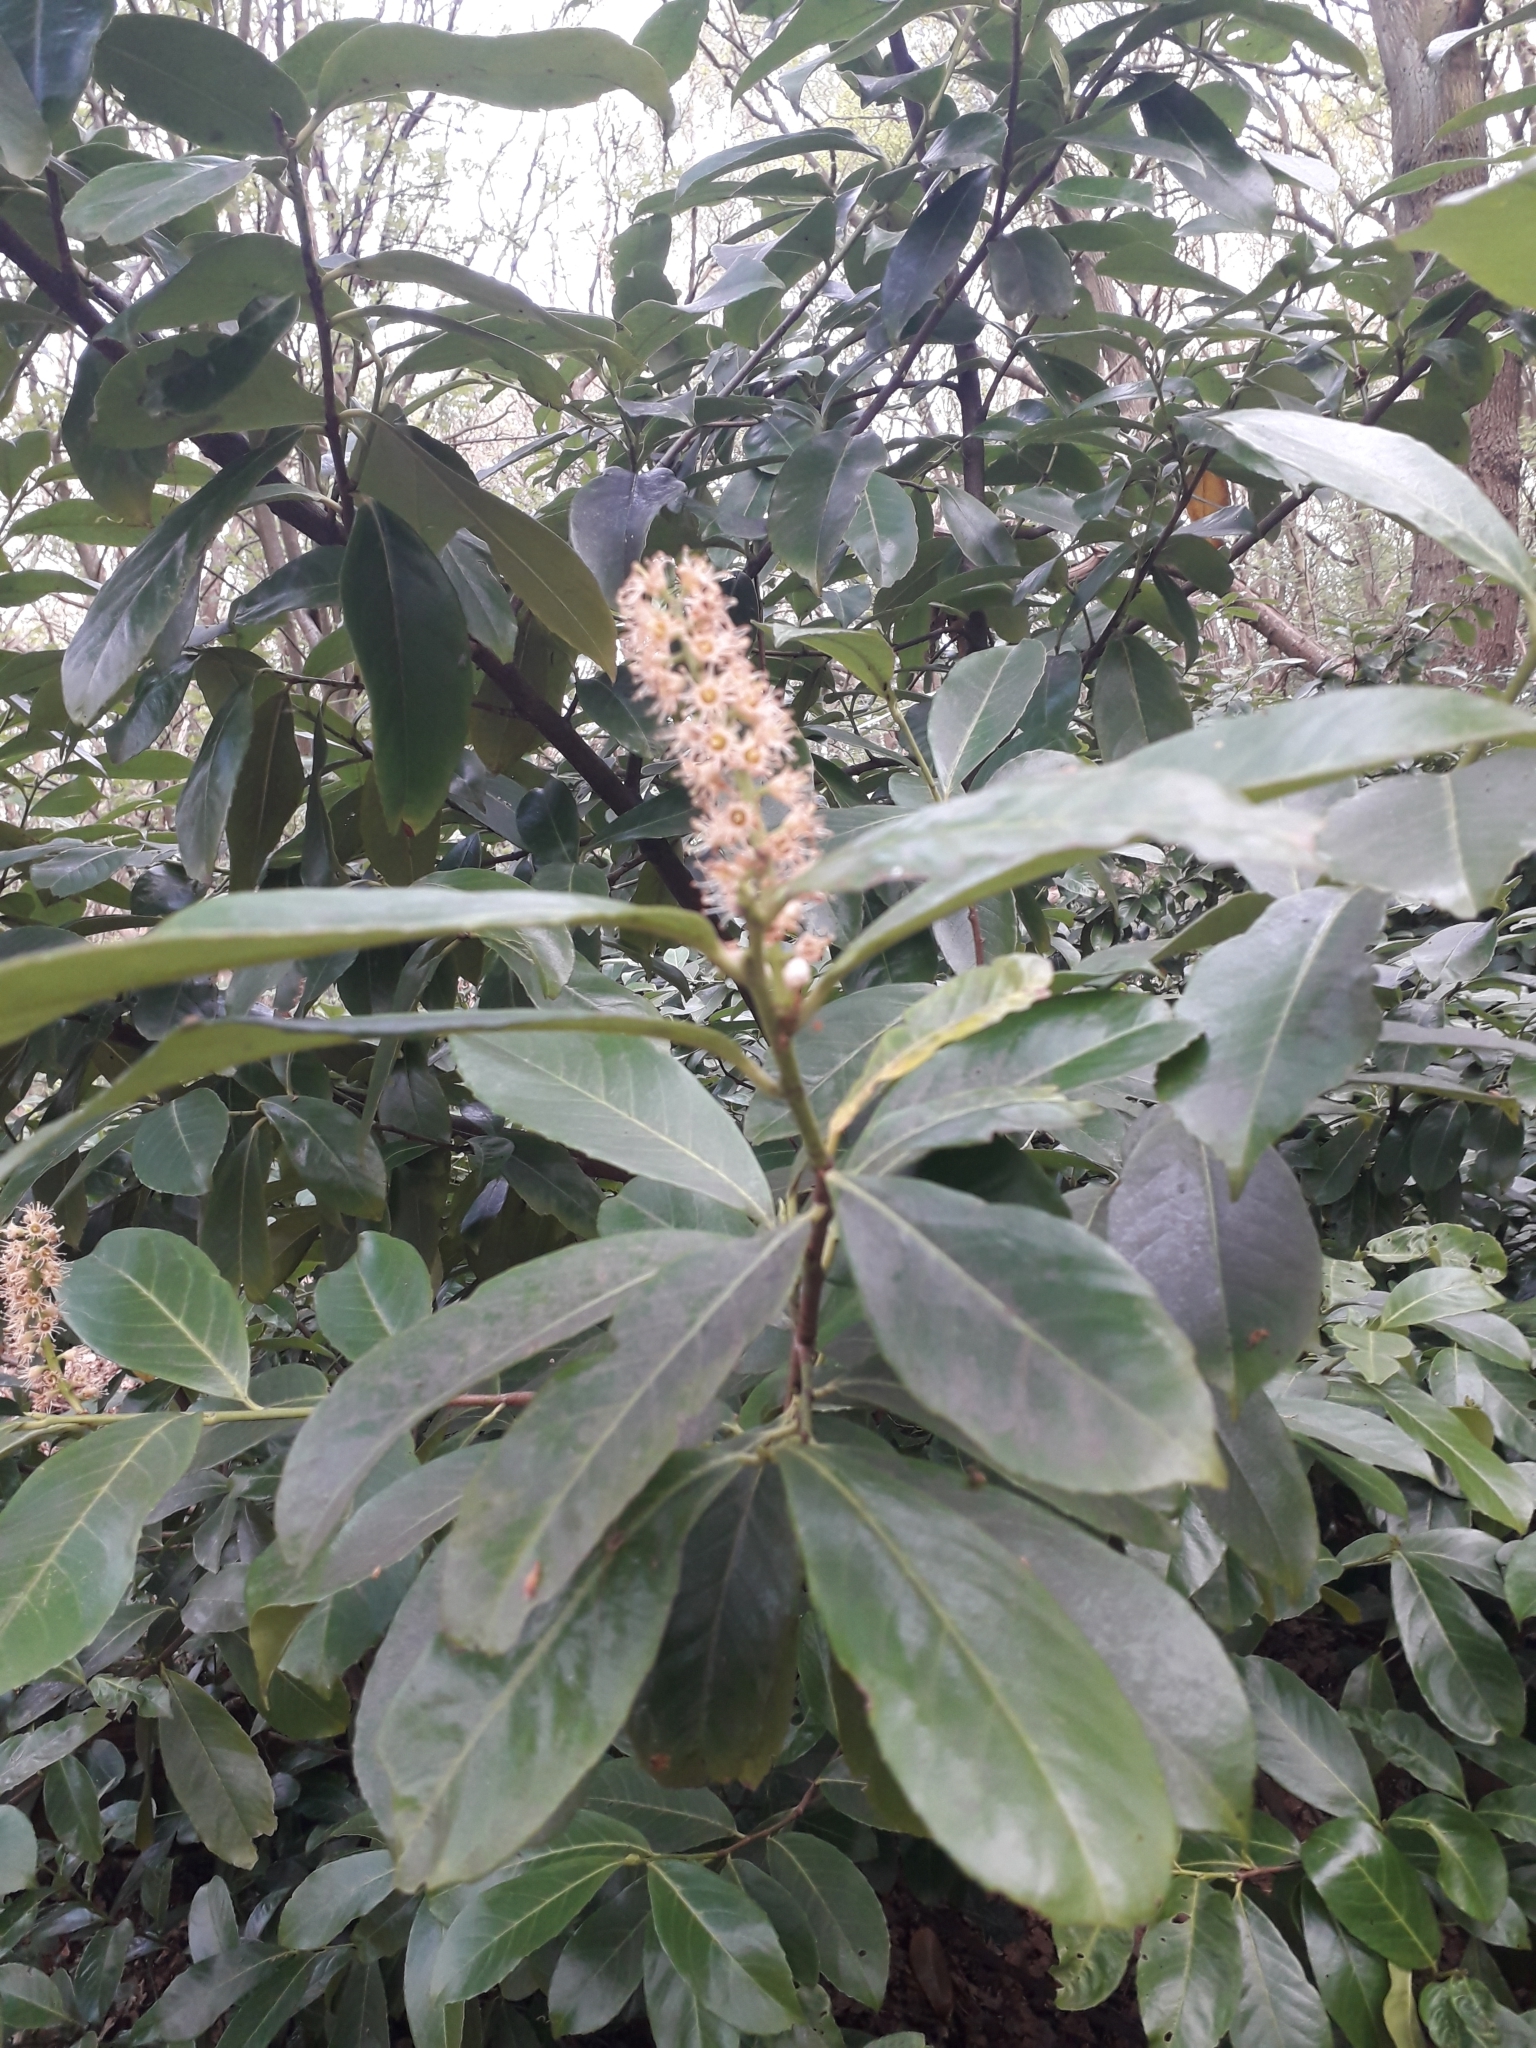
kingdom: Plantae
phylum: Tracheophyta
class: Magnoliopsida
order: Rosales
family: Rosaceae
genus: Prunus
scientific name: Prunus laurocerasus
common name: Cherry laurel
